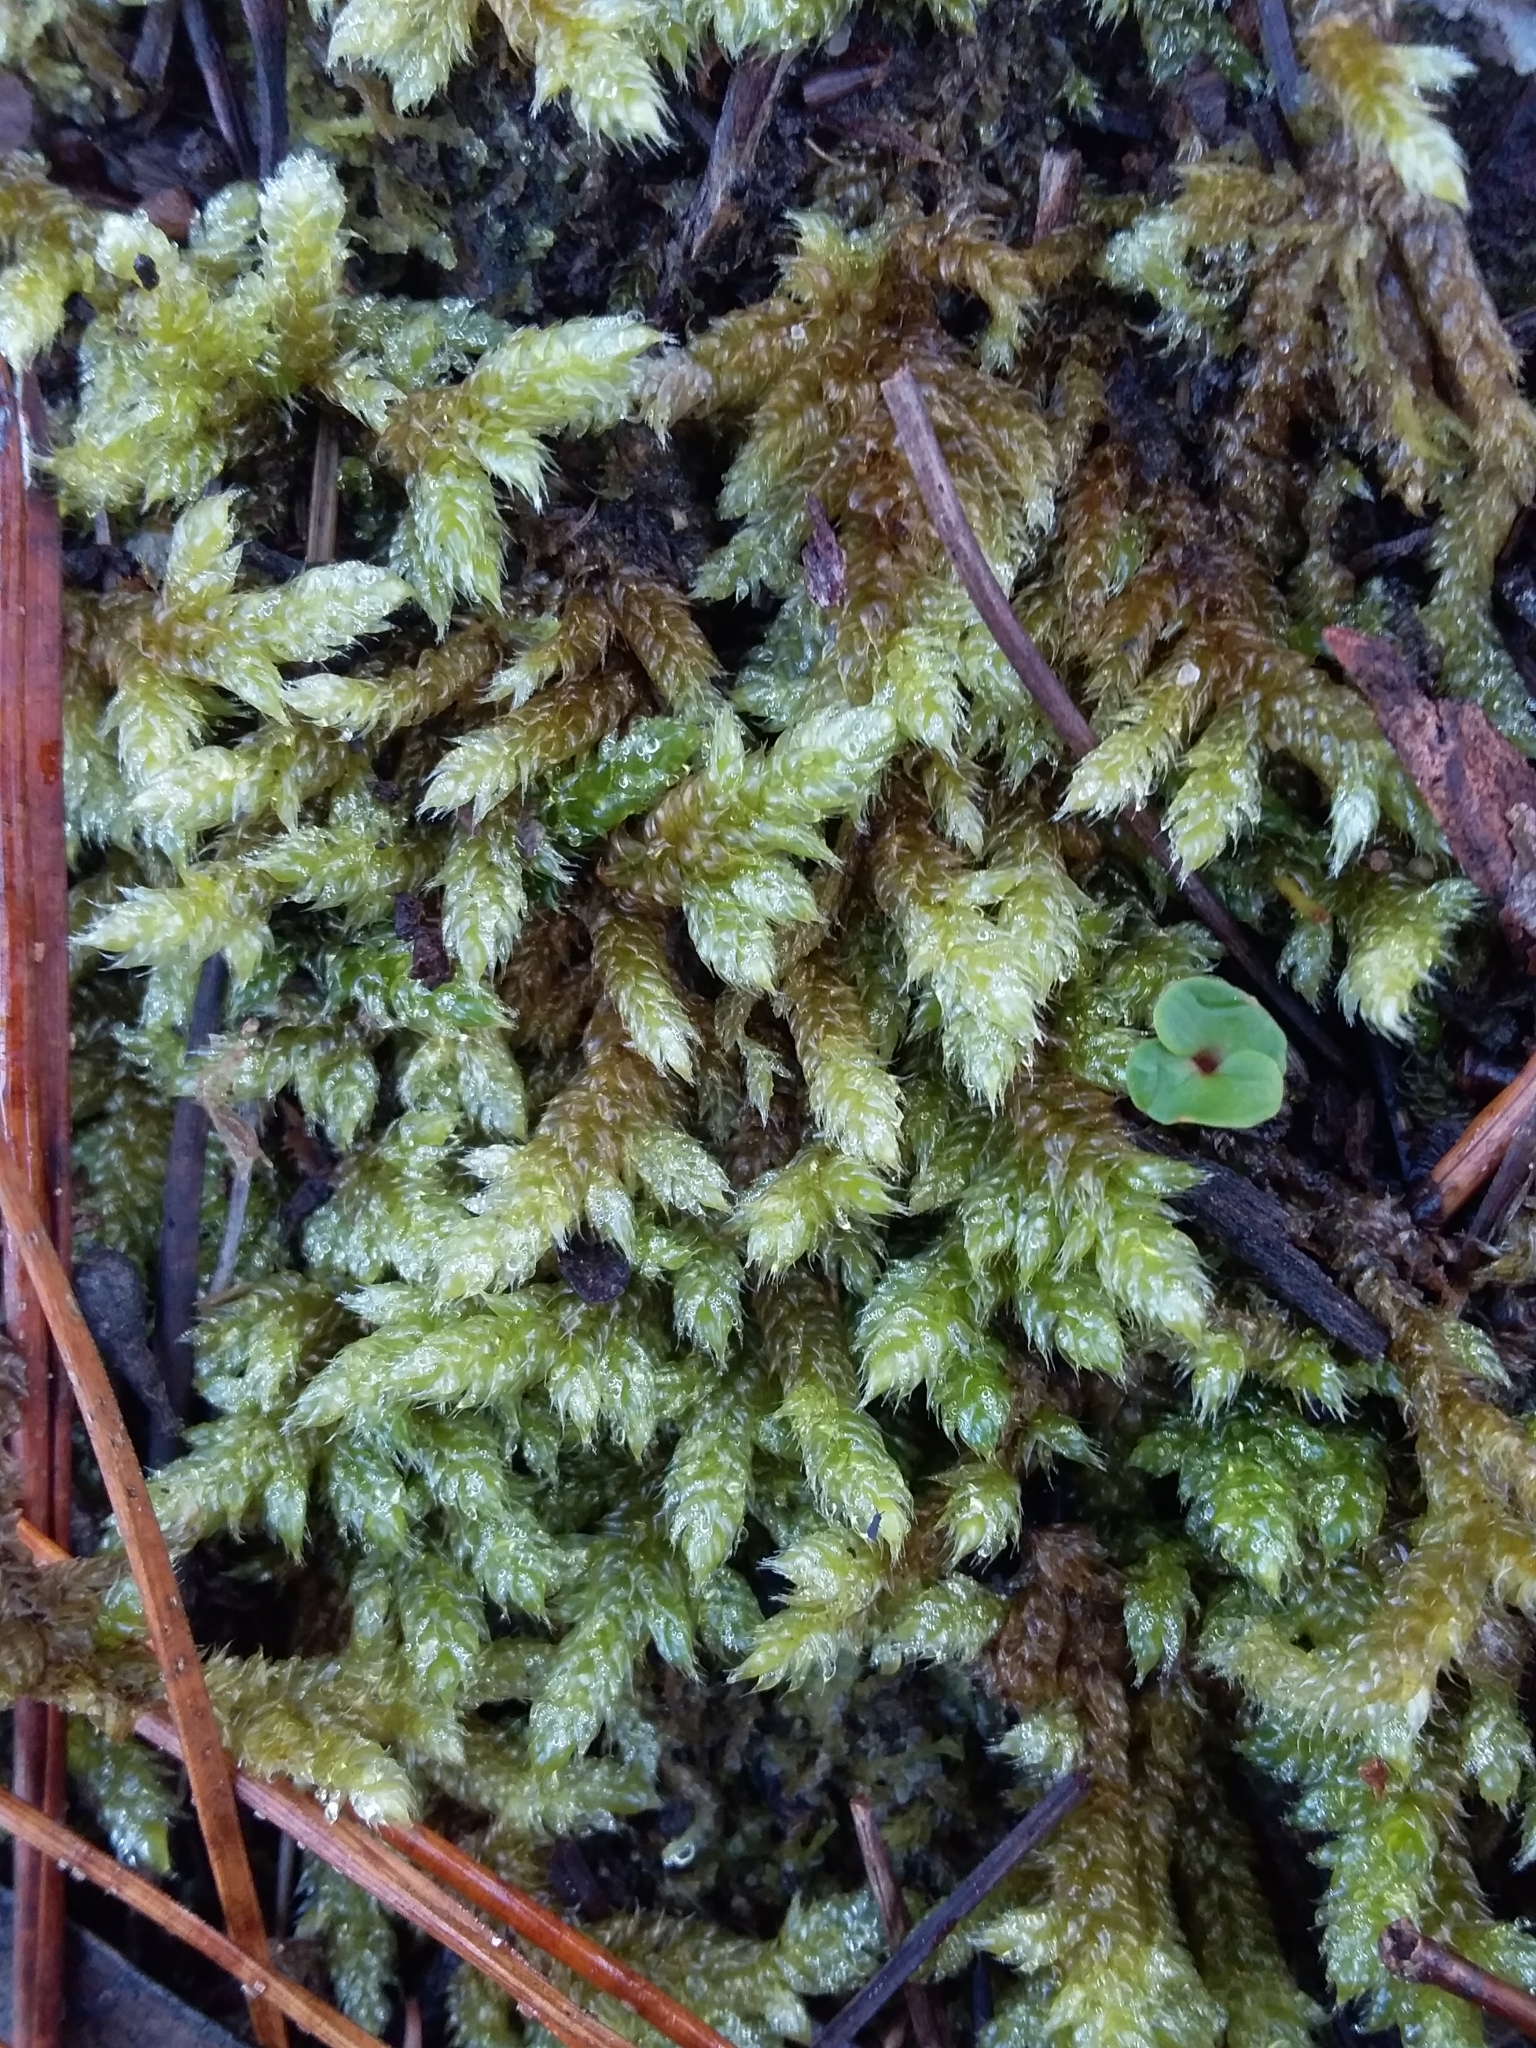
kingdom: Plantae
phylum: Bryophyta
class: Bryopsida
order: Hypnales
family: Hypnaceae
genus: Hypnum
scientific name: Hypnum cupressiforme
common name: Cypress-leaved plait-moss
